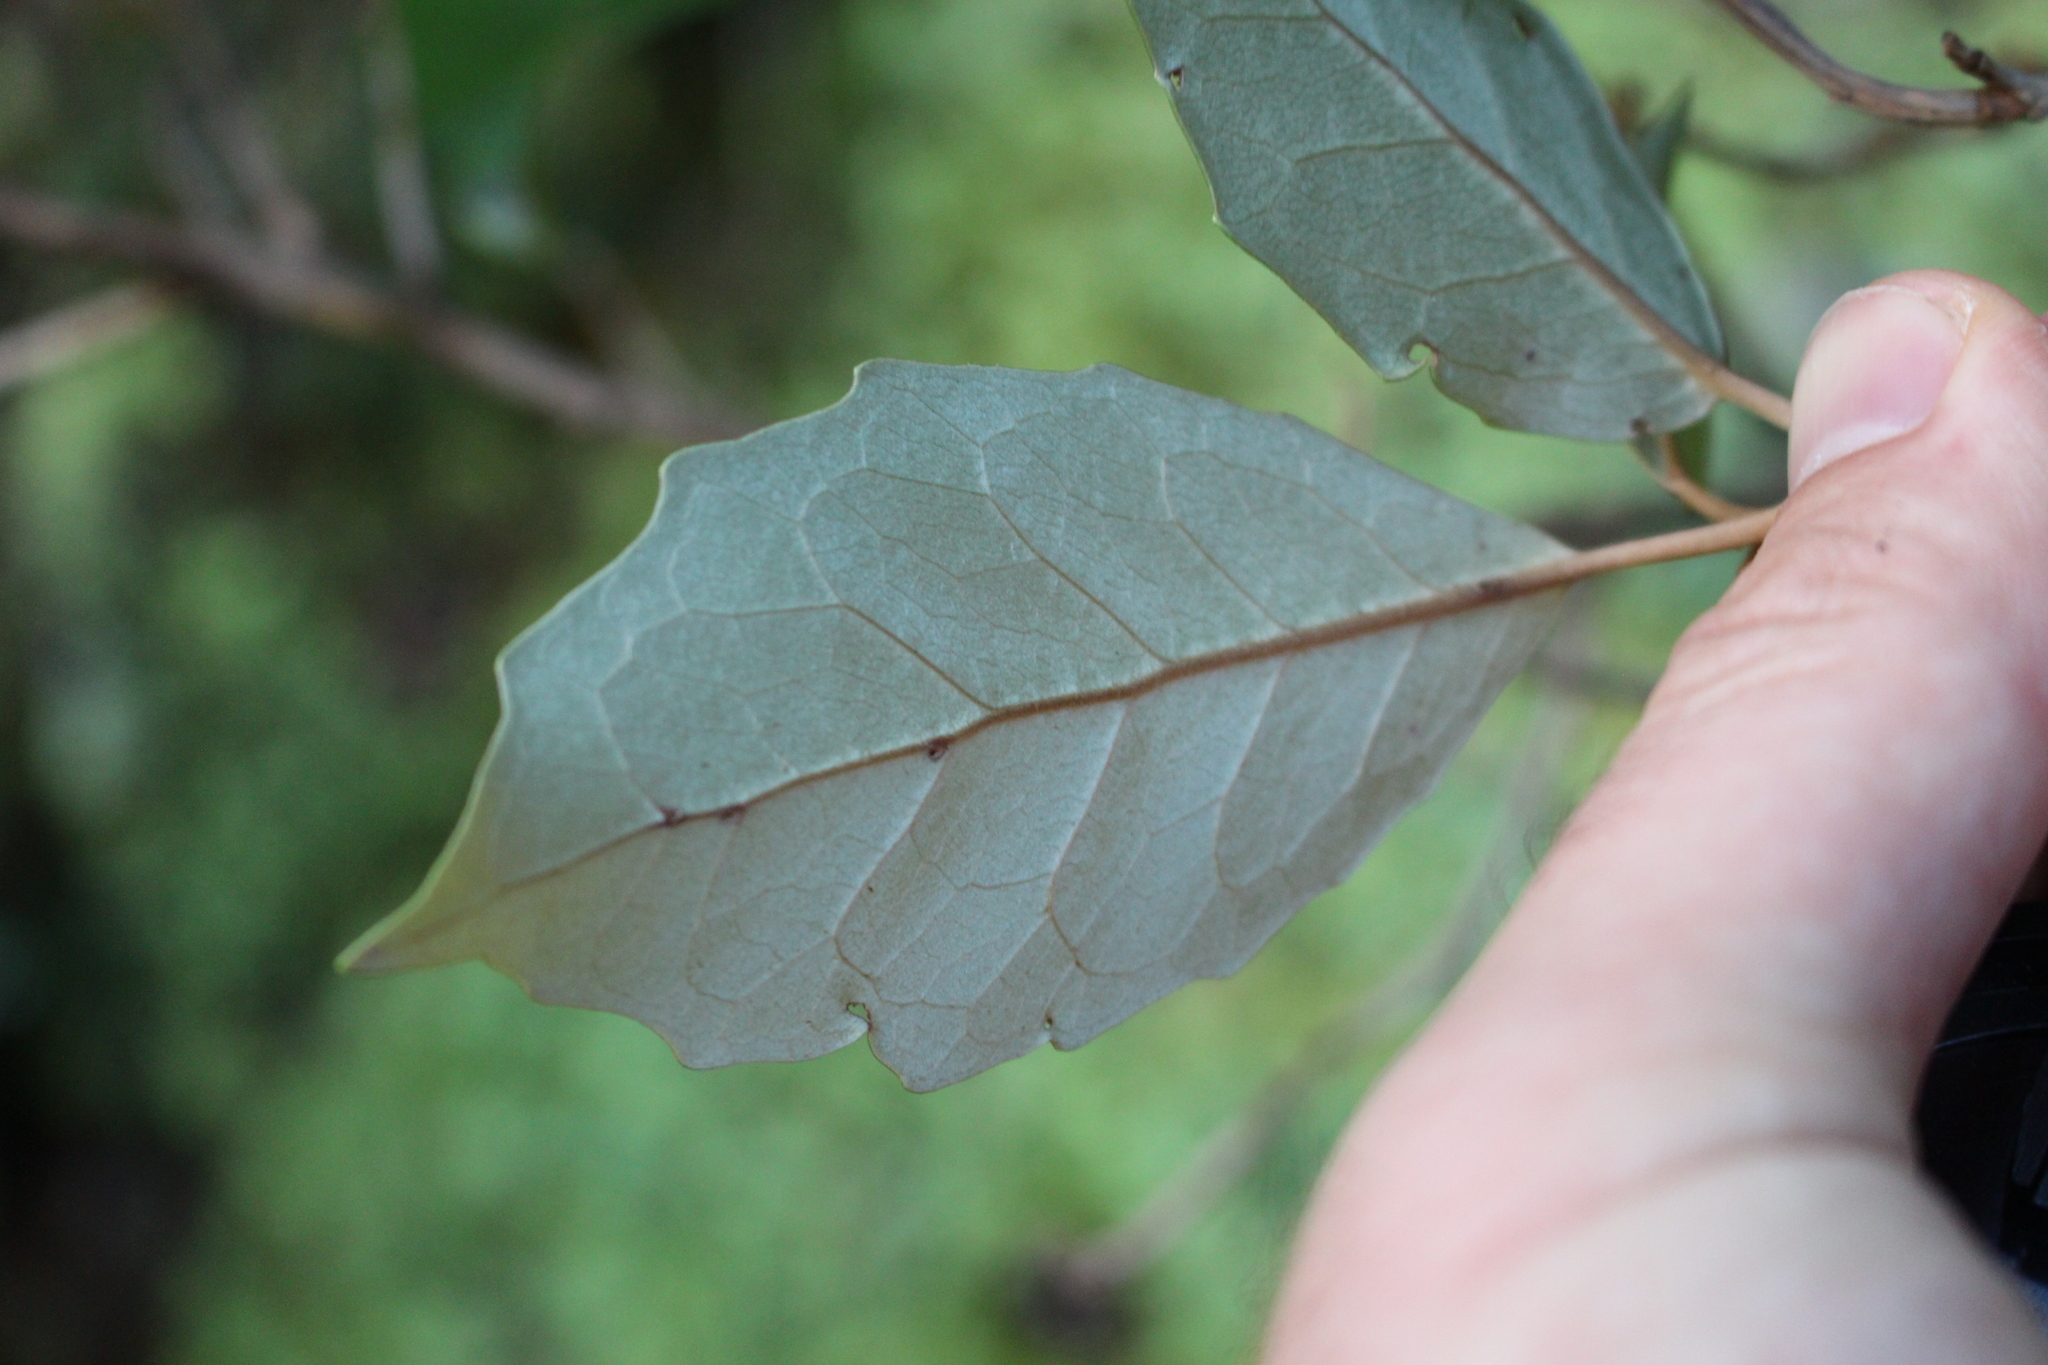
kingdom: Plantae
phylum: Tracheophyta
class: Magnoliopsida
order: Asterales
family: Asteraceae
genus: Olearia
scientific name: Olearia arborescens
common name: Glossy tree daisy
